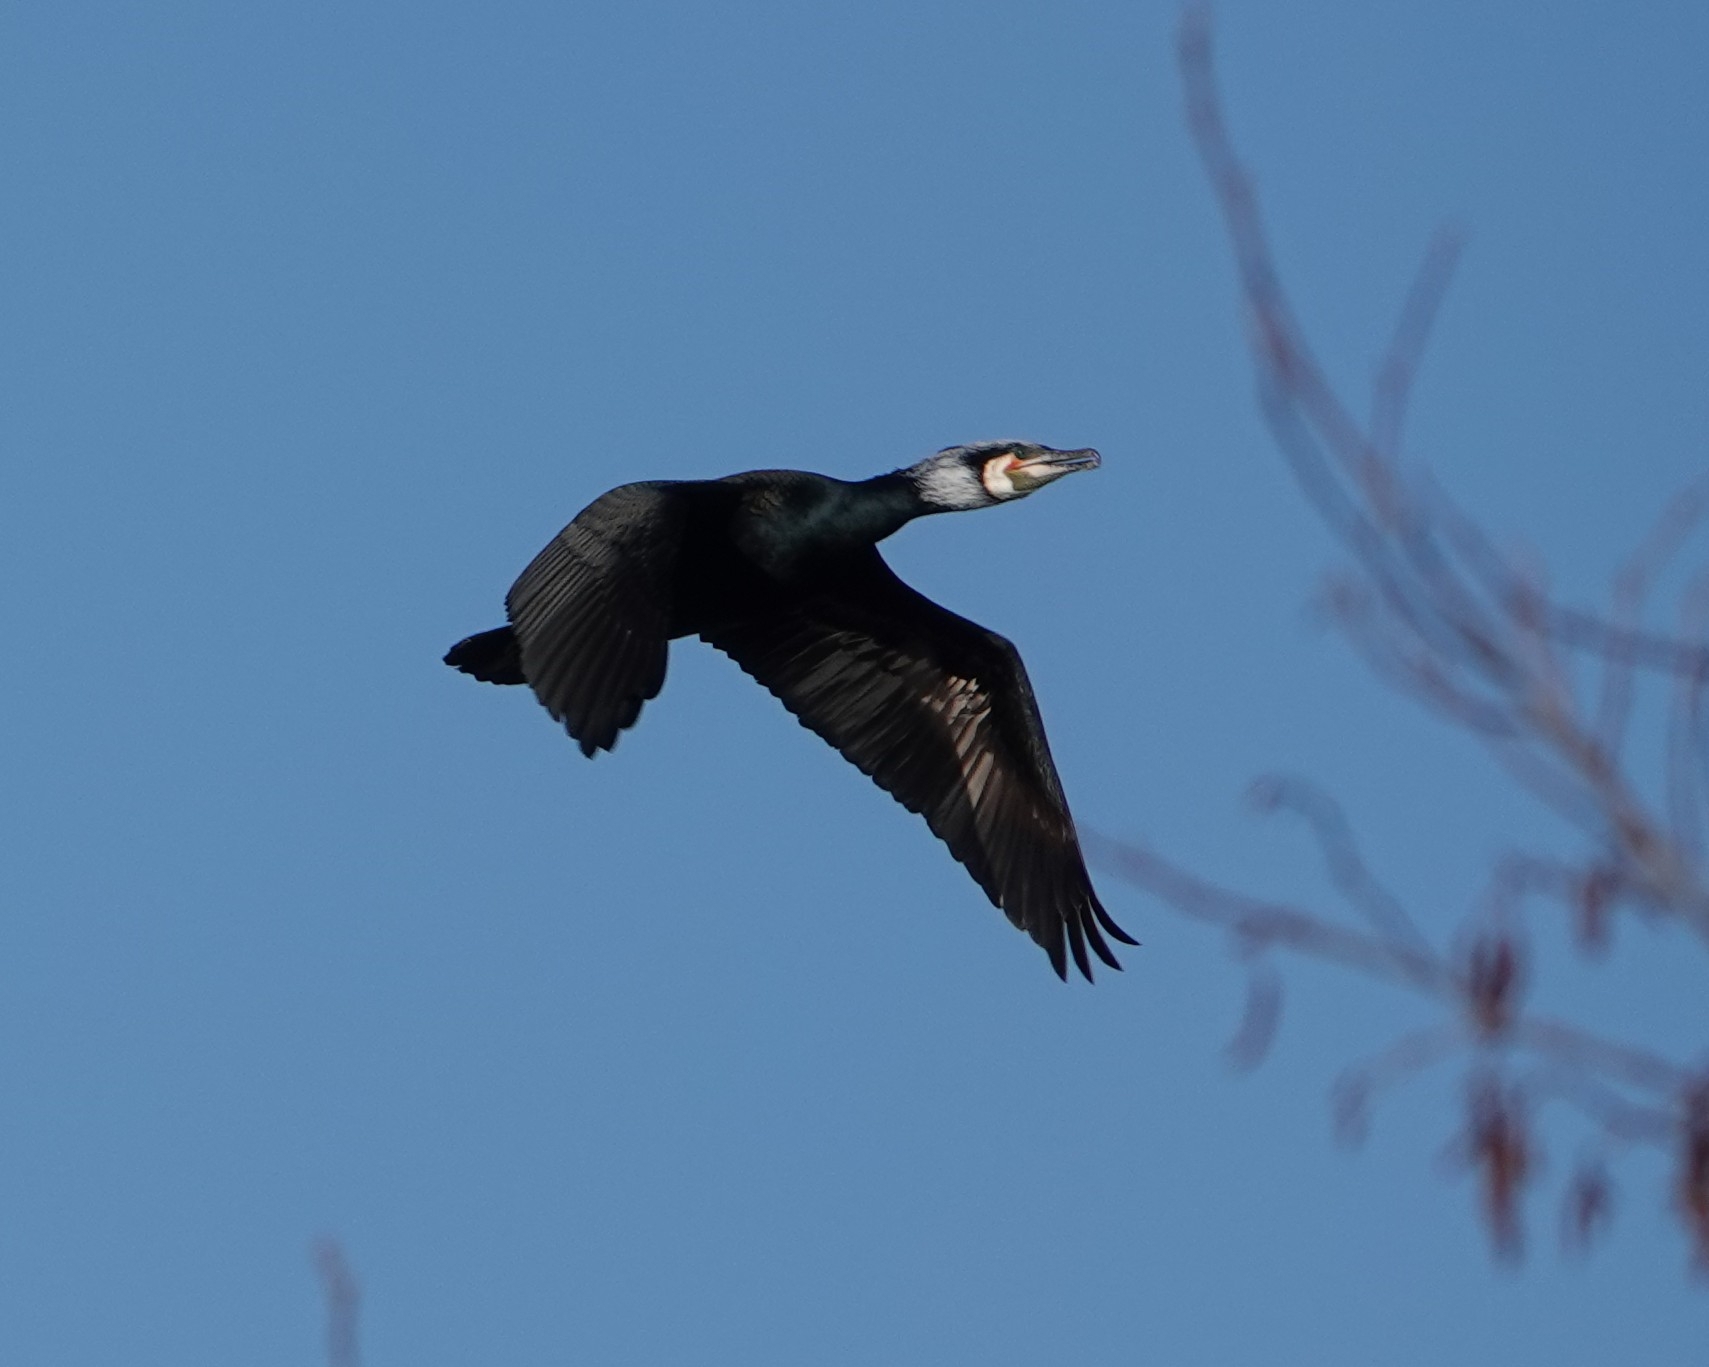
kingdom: Animalia
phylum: Chordata
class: Aves
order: Suliformes
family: Phalacrocoracidae
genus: Phalacrocorax
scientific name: Phalacrocorax carbo
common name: Great cormorant
